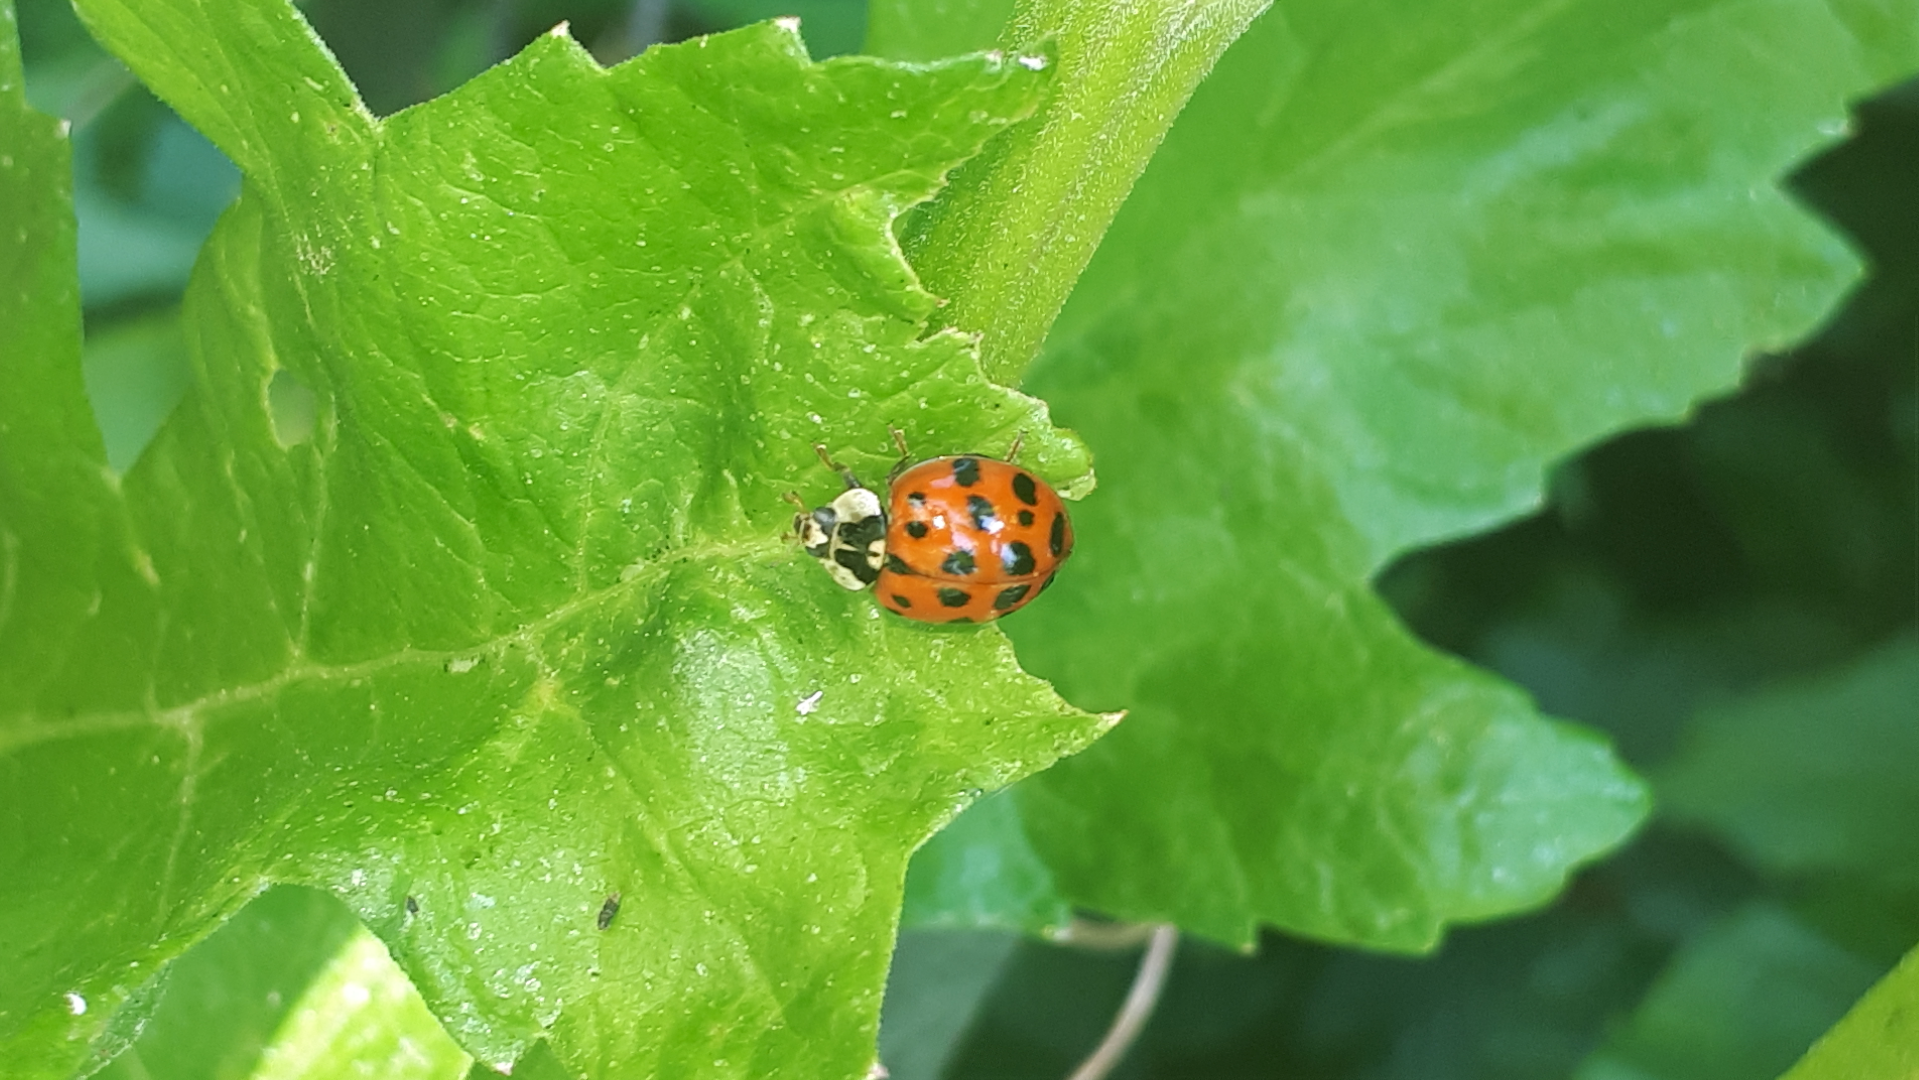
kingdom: Animalia
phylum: Arthropoda
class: Insecta
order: Coleoptera
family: Coccinellidae
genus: Harmonia
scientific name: Harmonia axyridis
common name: Harlequin ladybird
